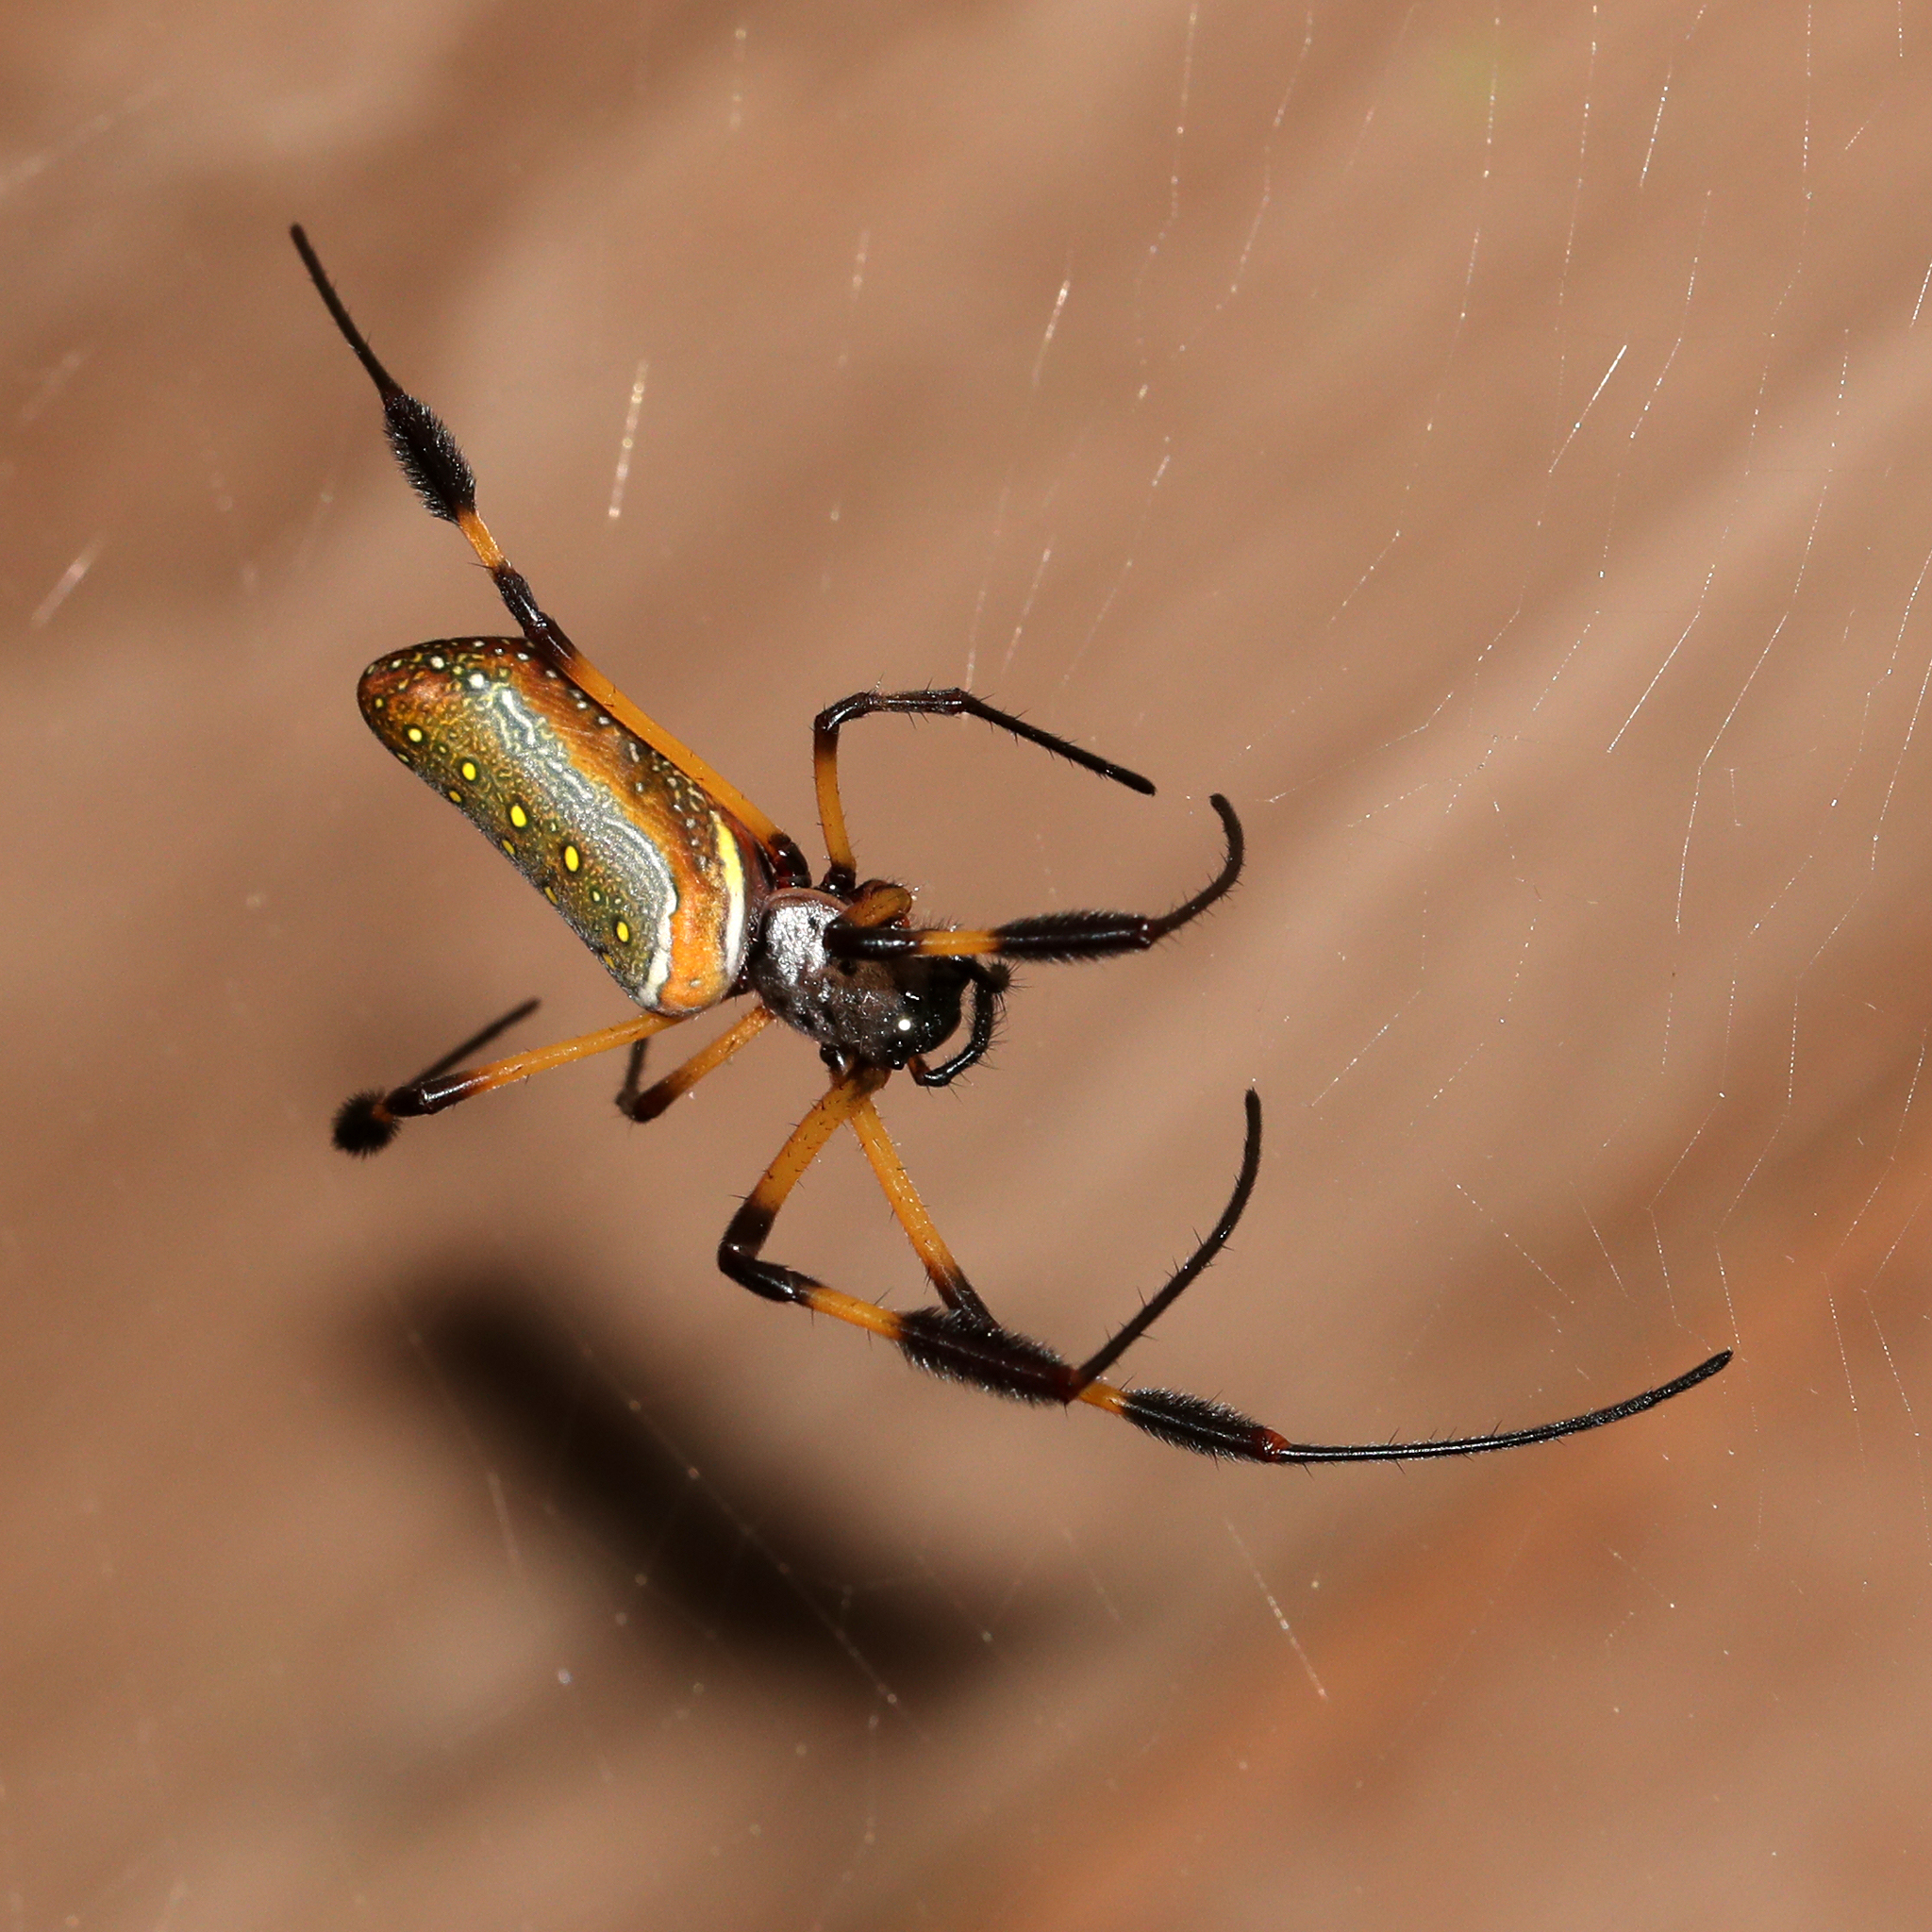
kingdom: Animalia
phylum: Arthropoda
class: Arachnida
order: Araneae
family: Araneidae
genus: Trichonephila
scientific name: Trichonephila clavipes
